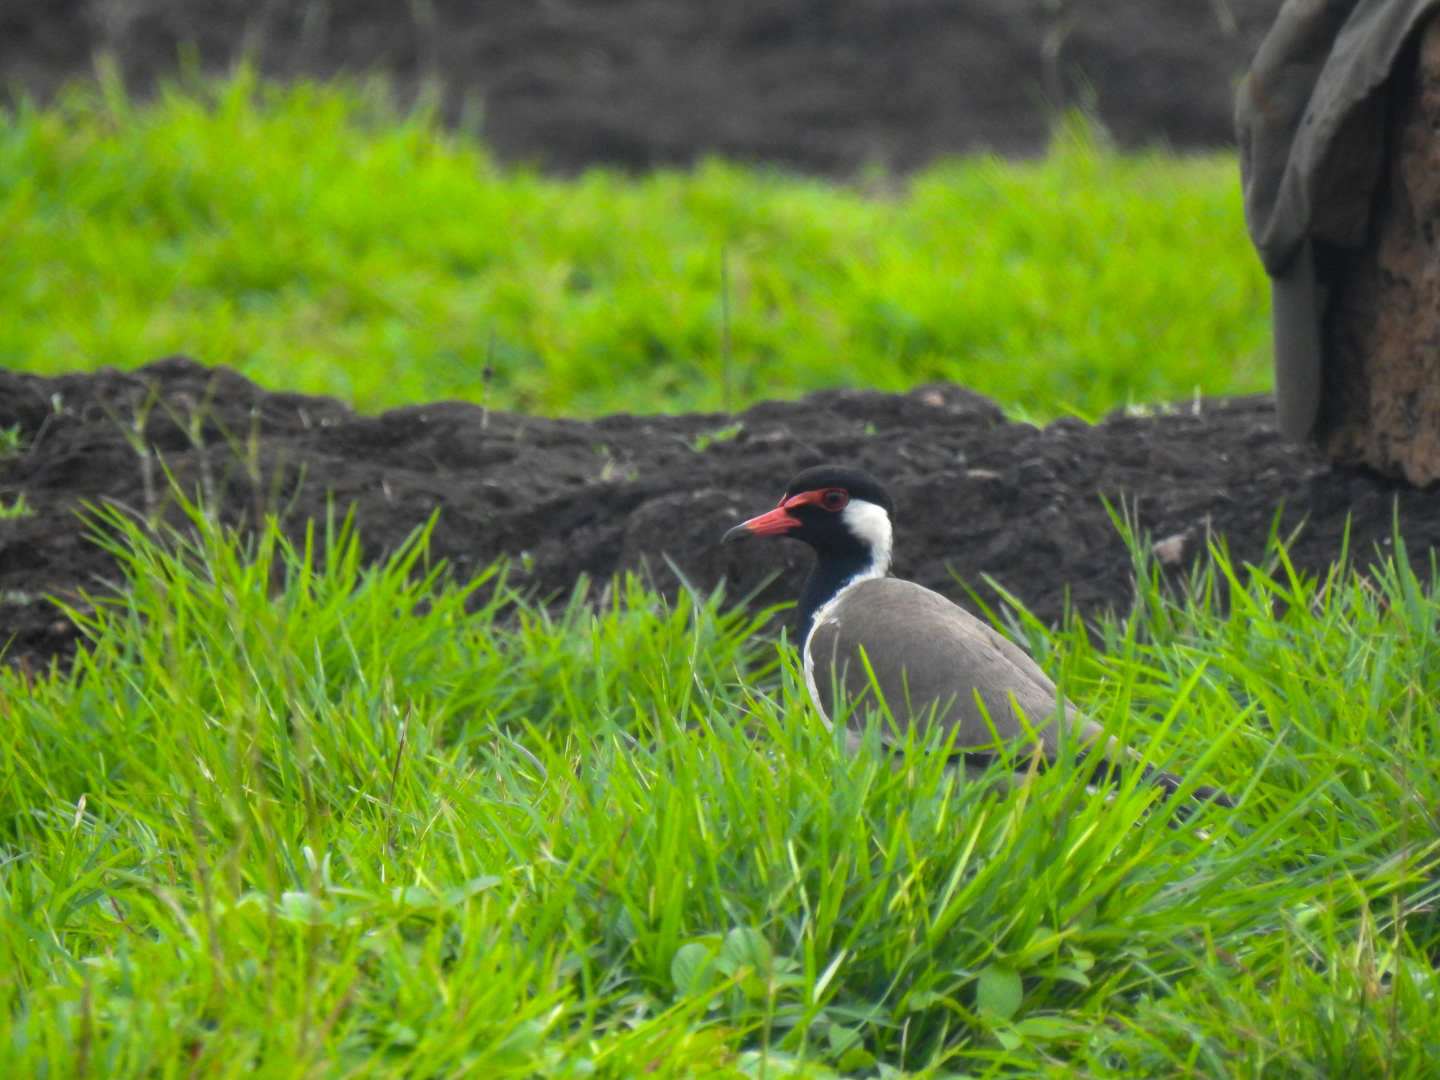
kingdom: Animalia
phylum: Chordata
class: Aves
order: Charadriiformes
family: Charadriidae
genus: Vanellus
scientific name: Vanellus indicus
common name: Red-wattled lapwing
